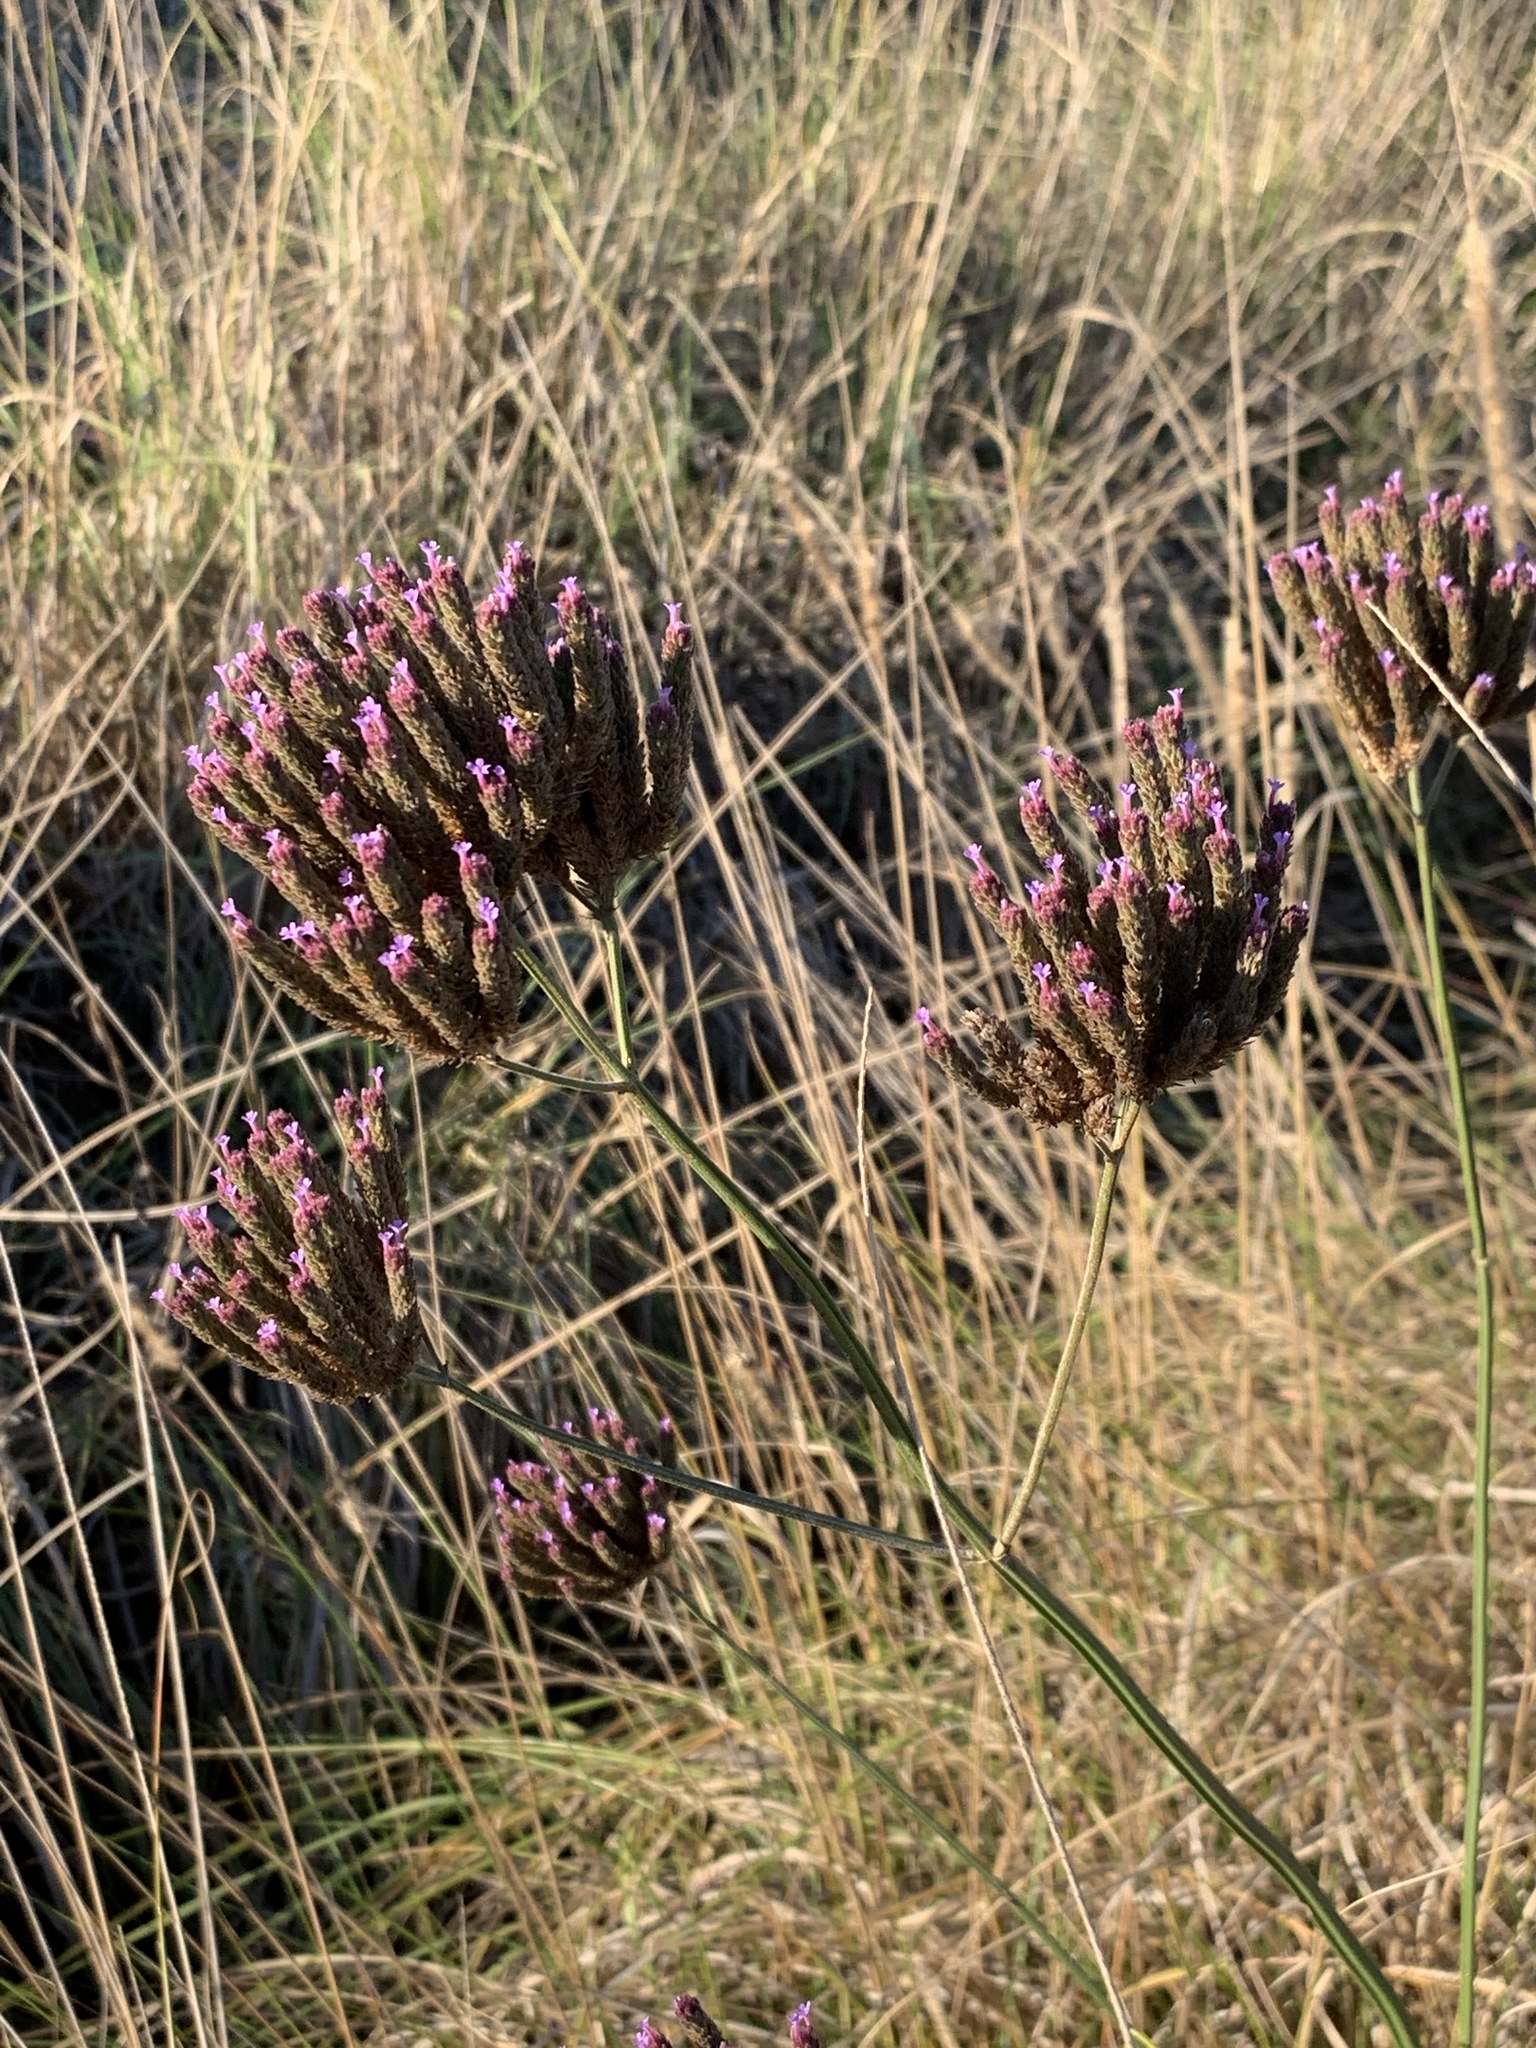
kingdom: Plantae
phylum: Tracheophyta
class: Magnoliopsida
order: Lamiales
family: Verbenaceae
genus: Verbena
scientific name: Verbena bonariensis
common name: Purpletop vervain
